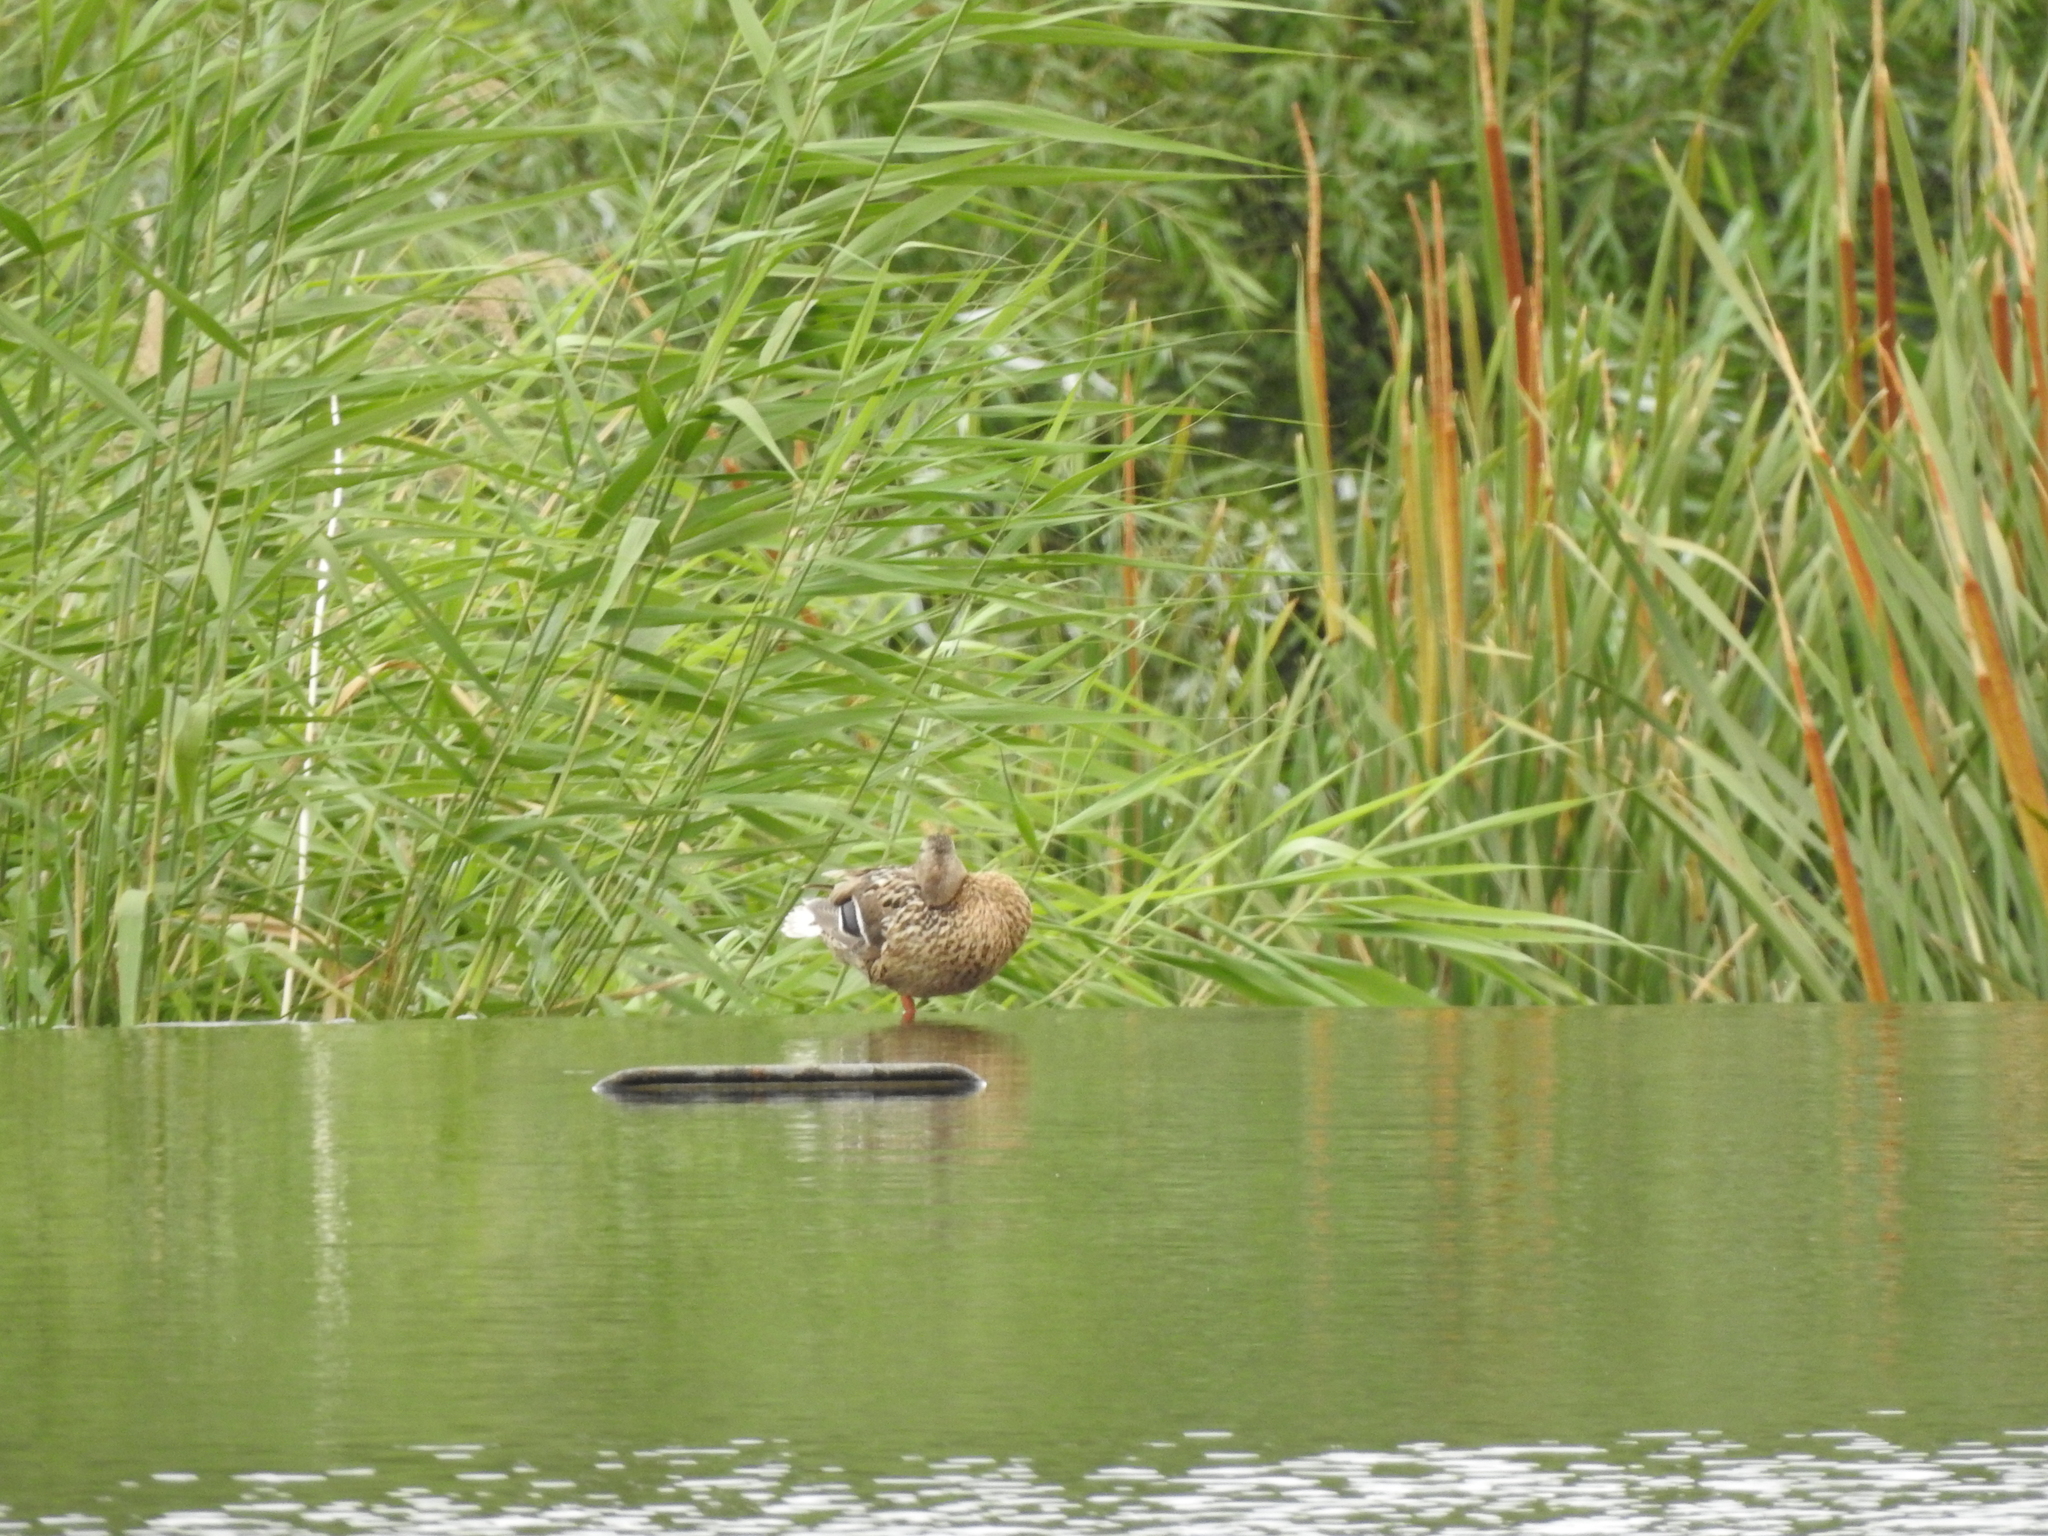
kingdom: Animalia
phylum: Chordata
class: Aves
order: Anseriformes
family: Anatidae
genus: Anas
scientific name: Anas platyrhynchos
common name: Mallard
